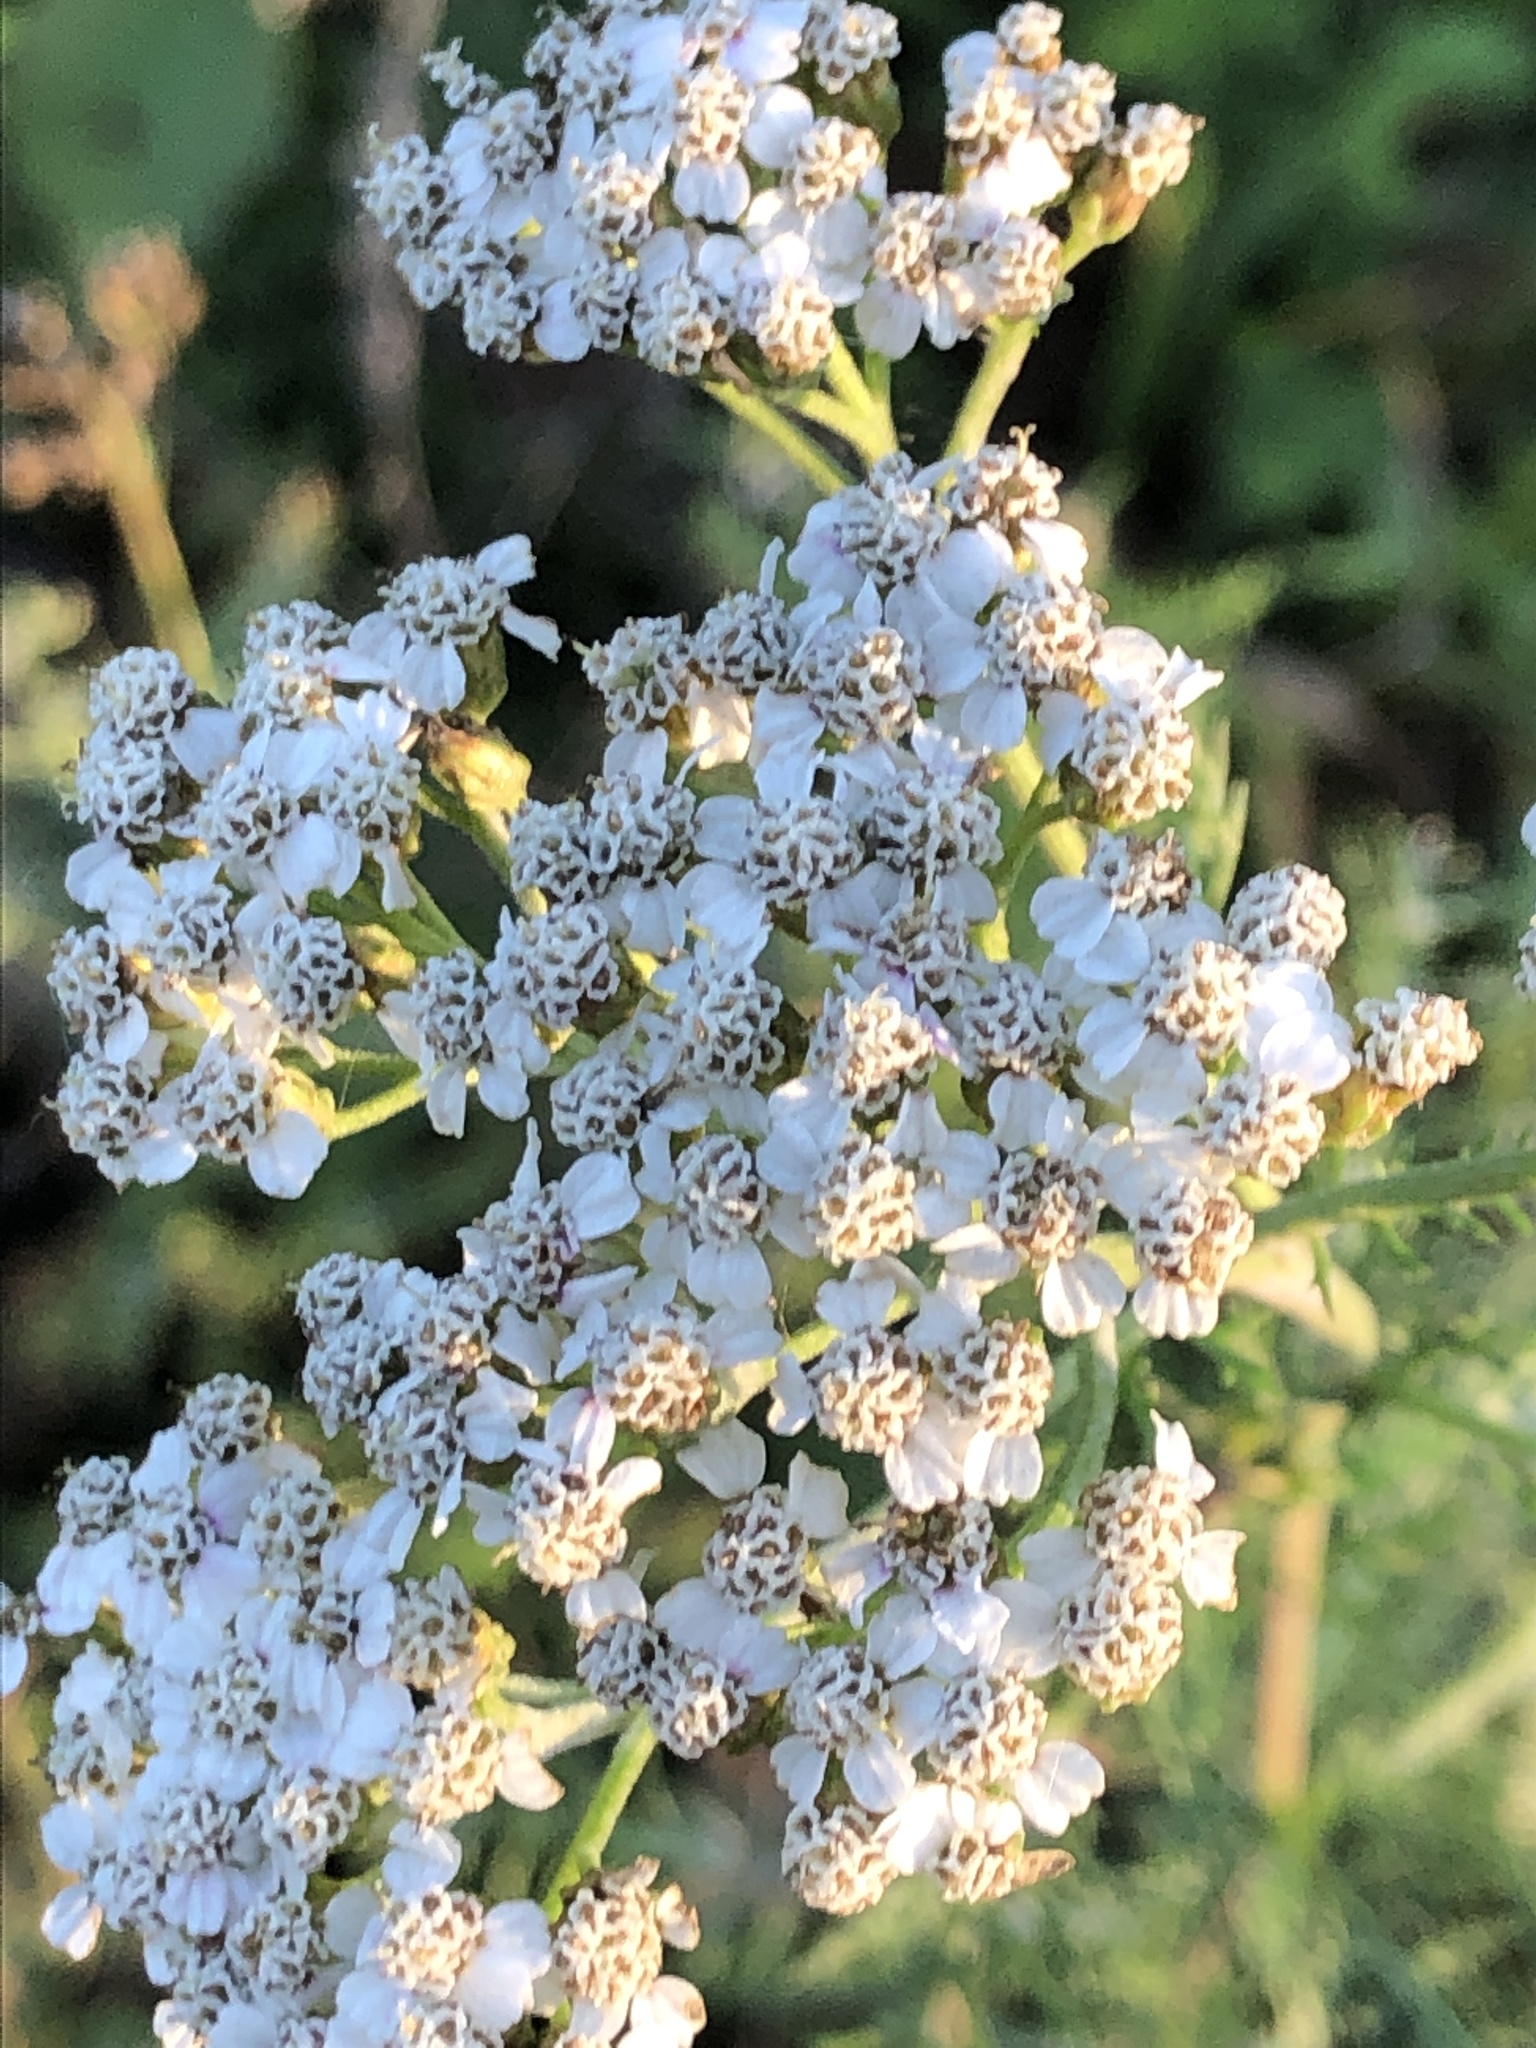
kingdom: Plantae
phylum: Tracheophyta
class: Magnoliopsida
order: Asterales
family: Asteraceae
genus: Achillea
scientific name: Achillea millefolium
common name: Yarrow
